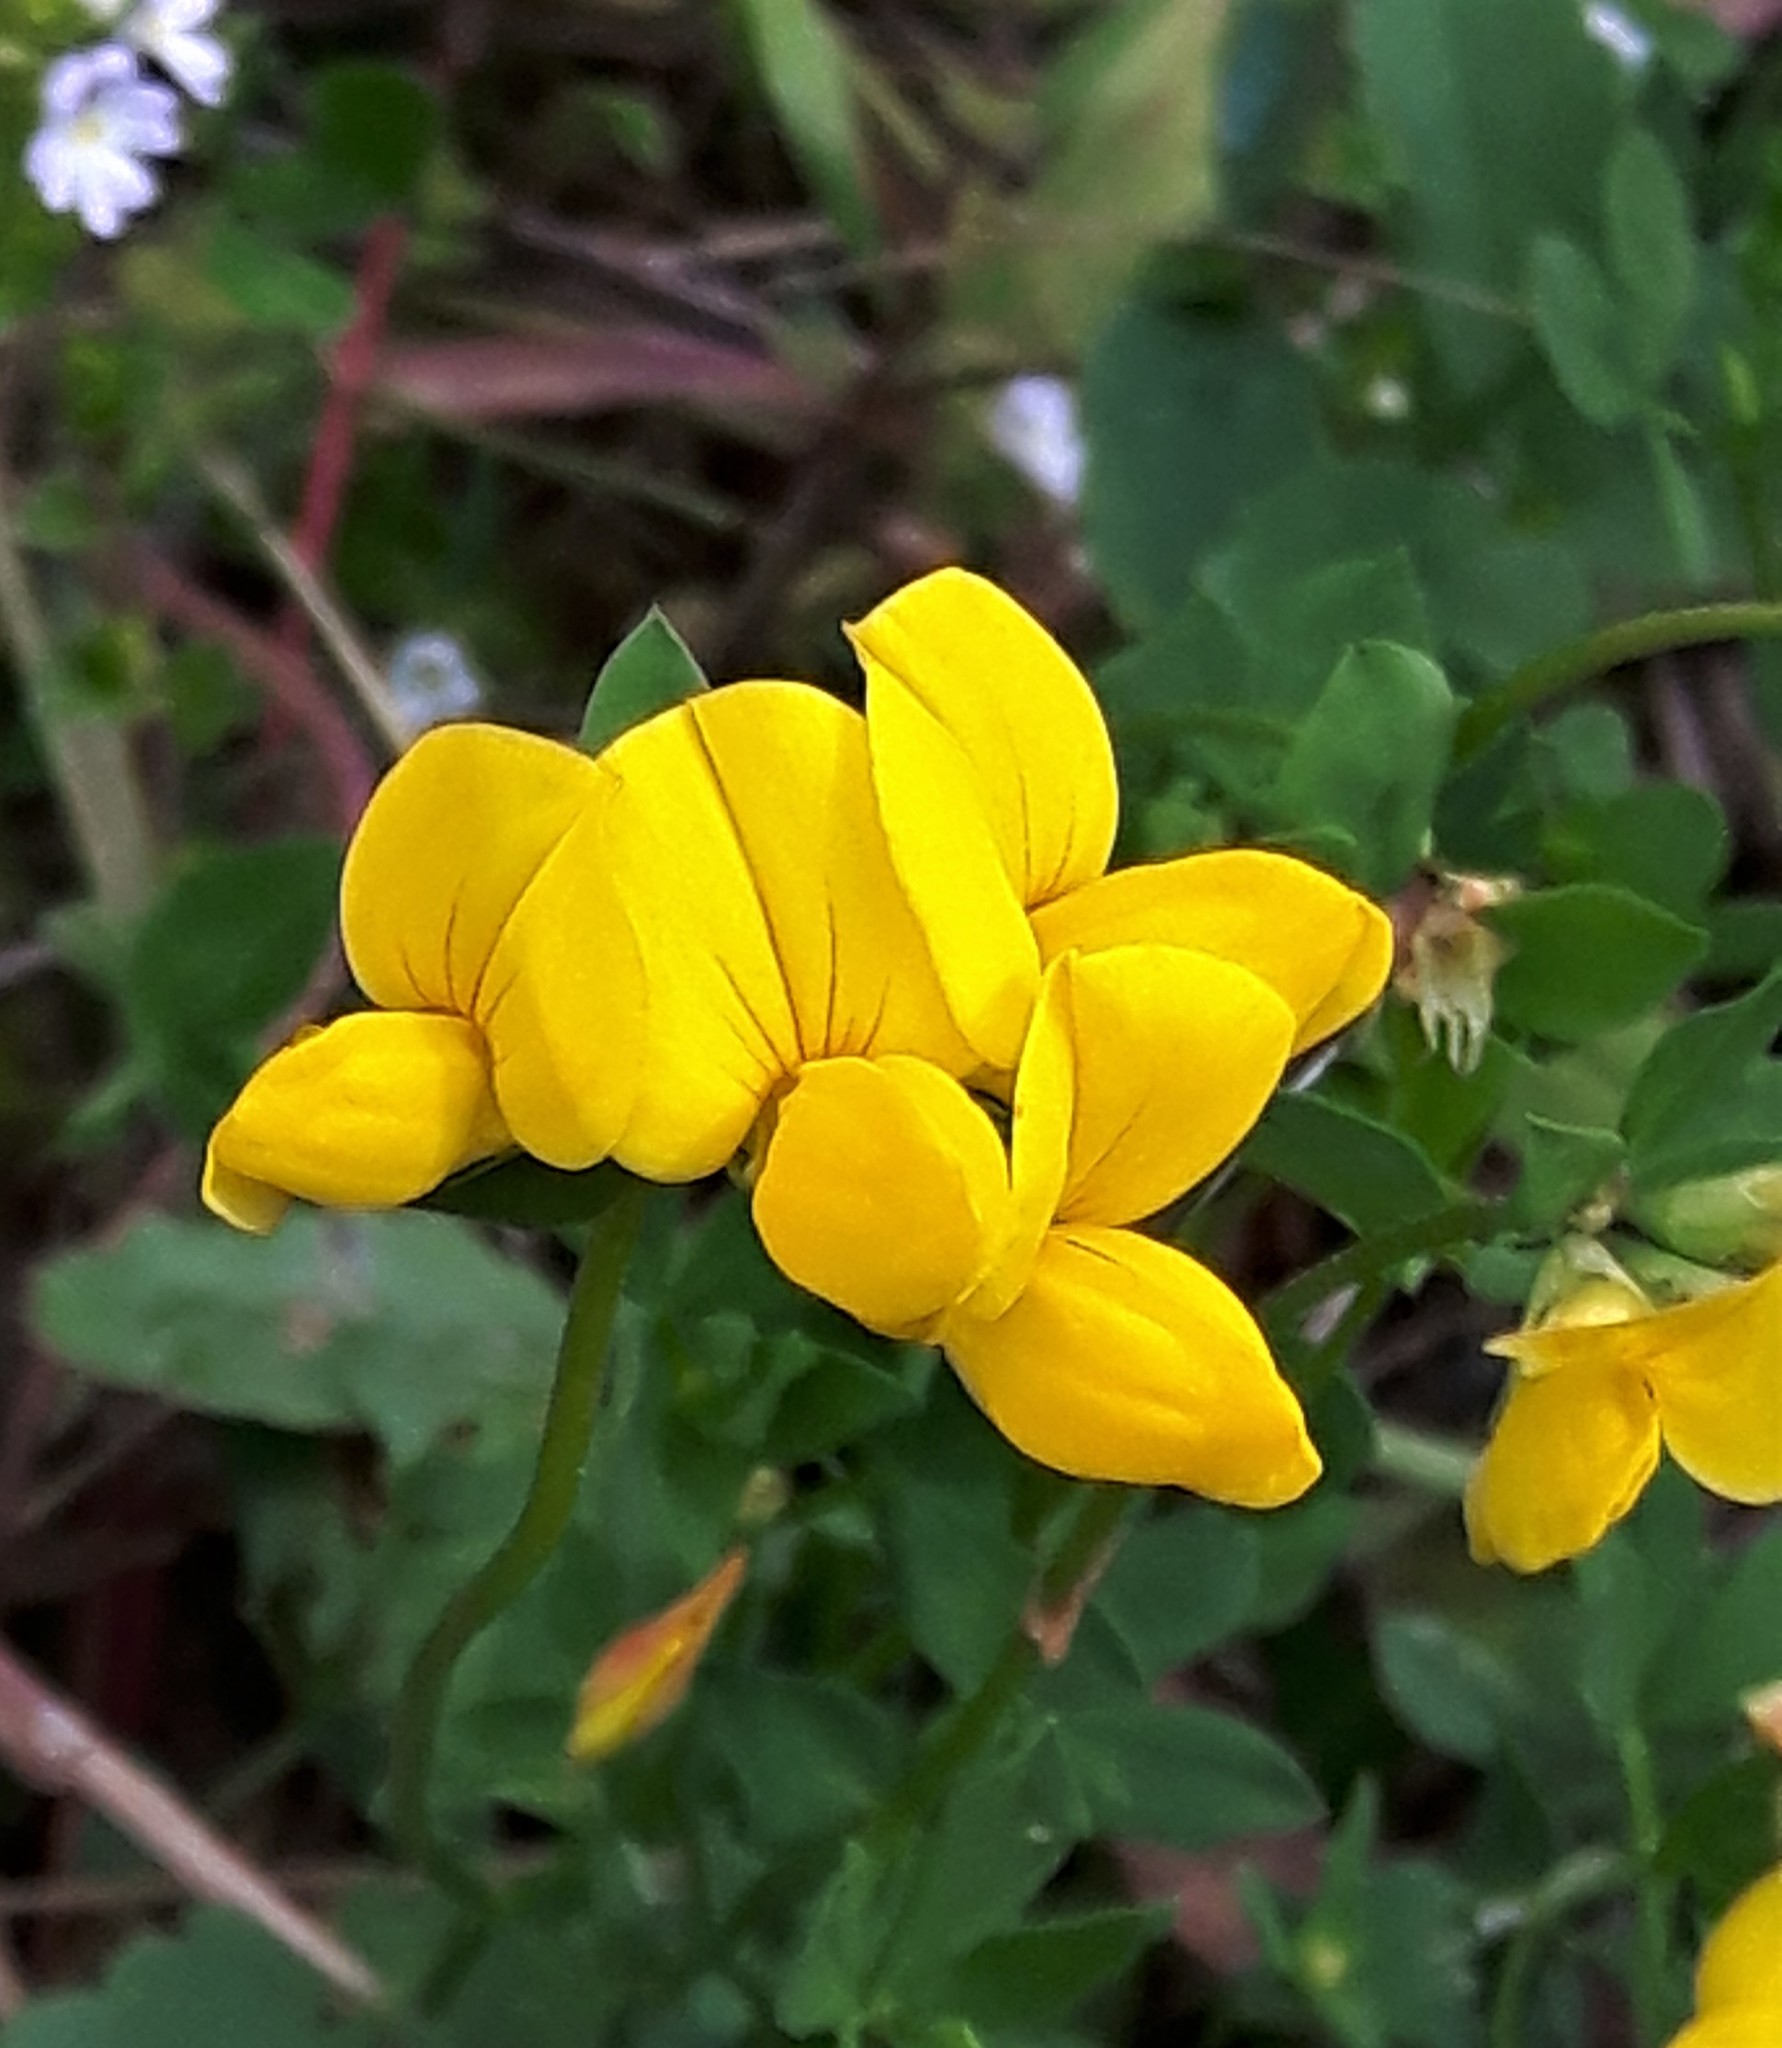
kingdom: Plantae
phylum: Tracheophyta
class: Magnoliopsida
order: Fabales
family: Fabaceae
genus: Lotus
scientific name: Lotus corniculatus
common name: Common bird's-foot-trefoil
